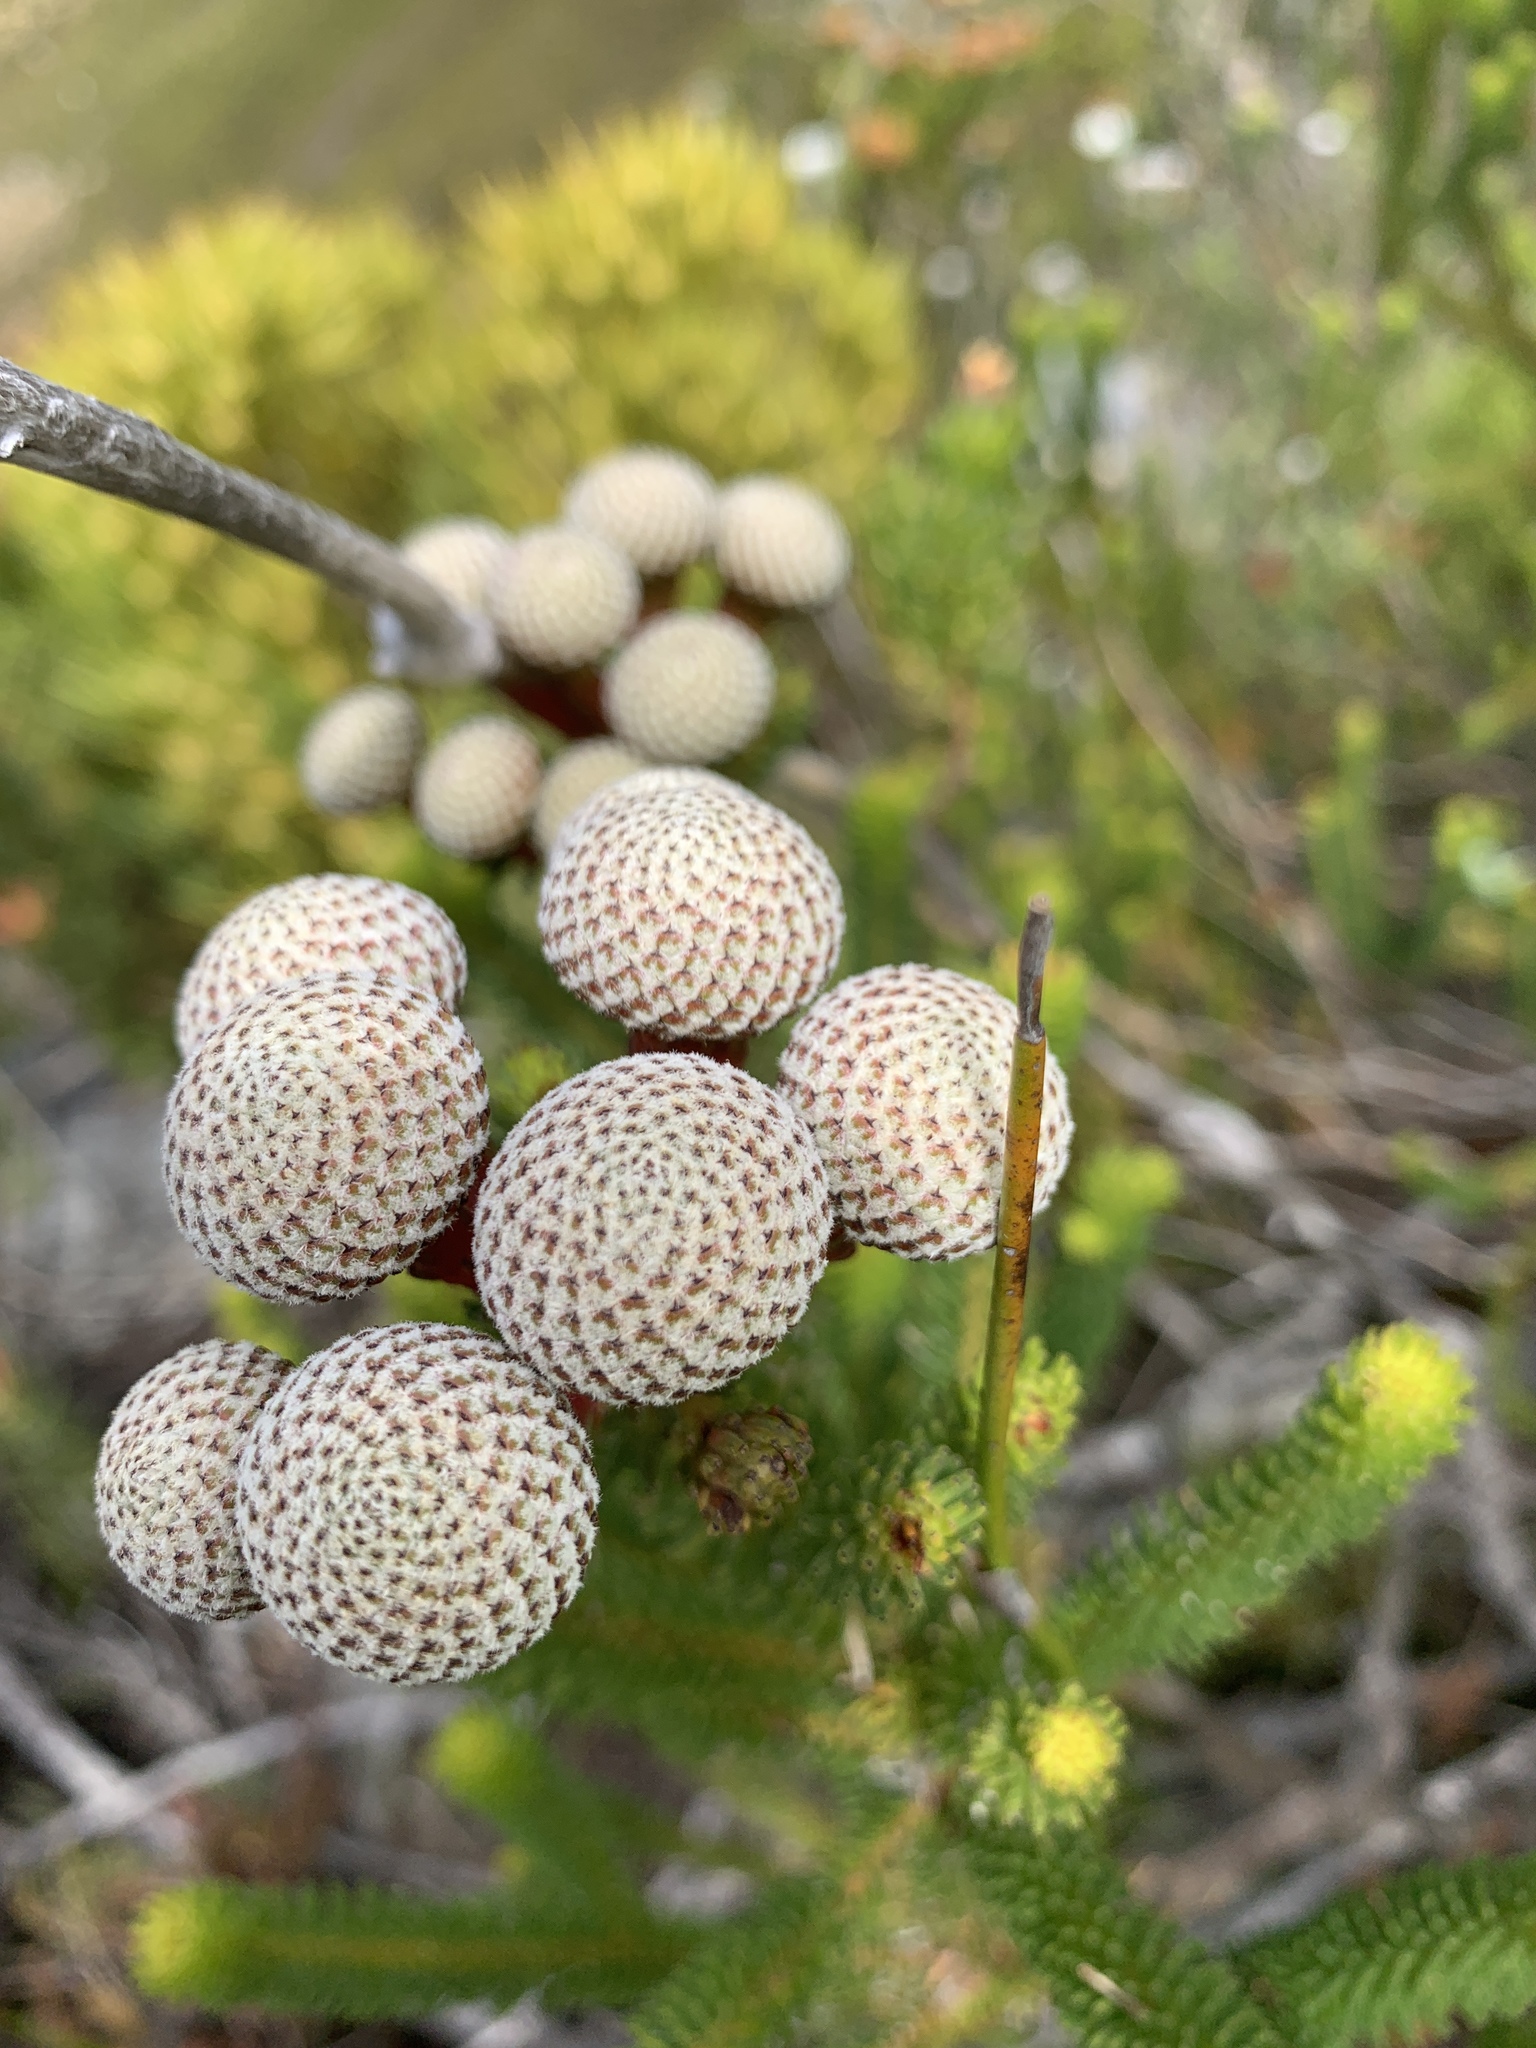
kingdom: Plantae
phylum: Tracheophyta
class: Magnoliopsida
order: Bruniales
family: Bruniaceae
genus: Berzelia
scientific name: Berzelia stokoei
